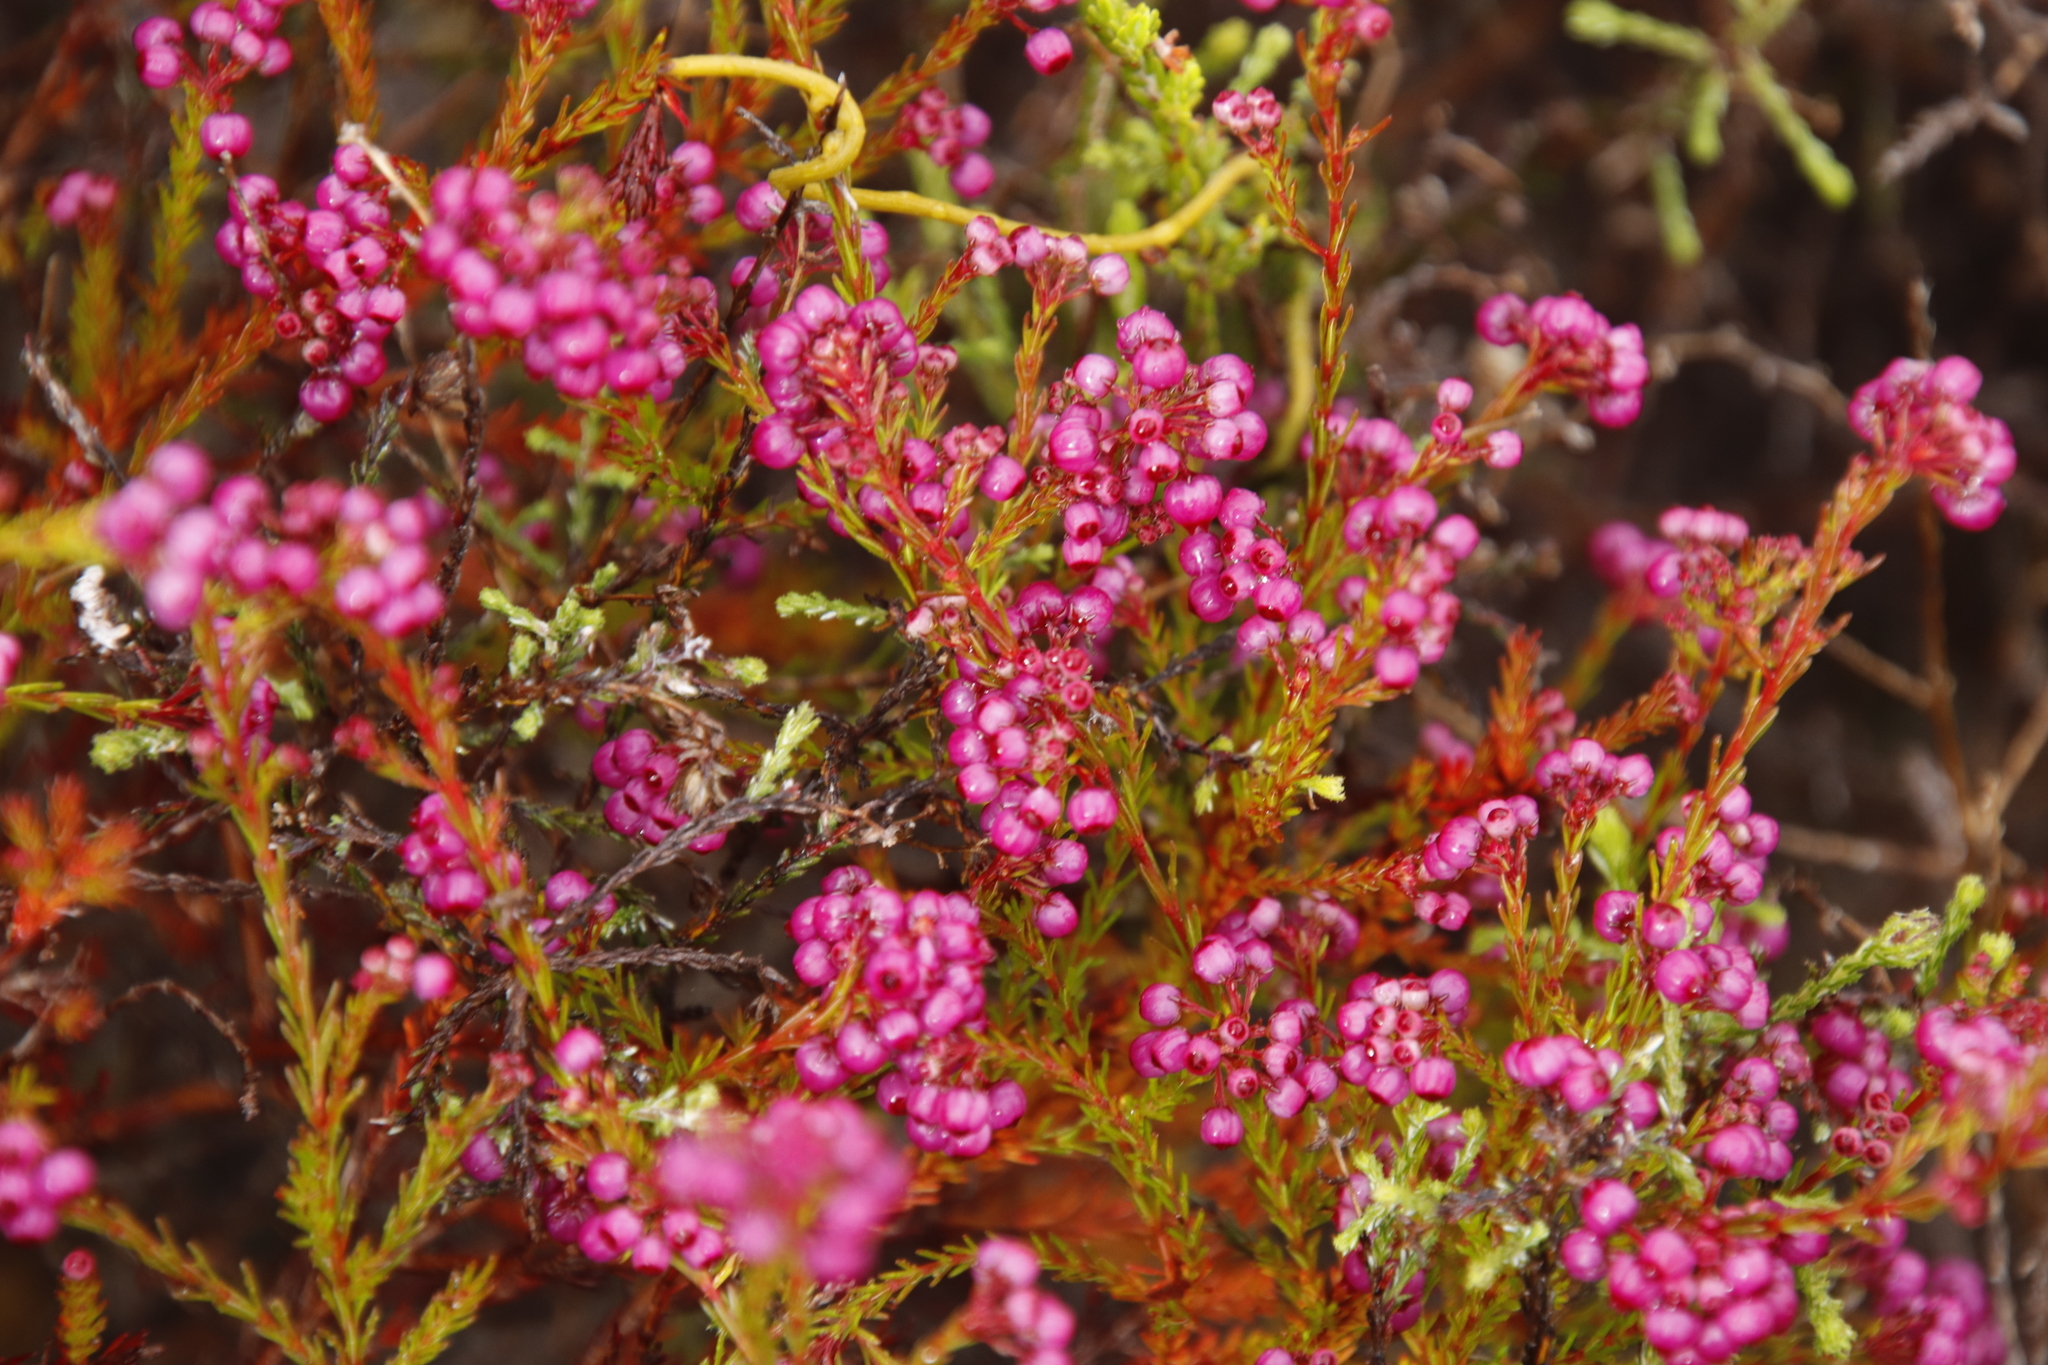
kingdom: Plantae
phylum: Tracheophyta
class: Magnoliopsida
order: Ericales
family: Ericaceae
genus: Erica
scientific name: Erica multumbellifera
